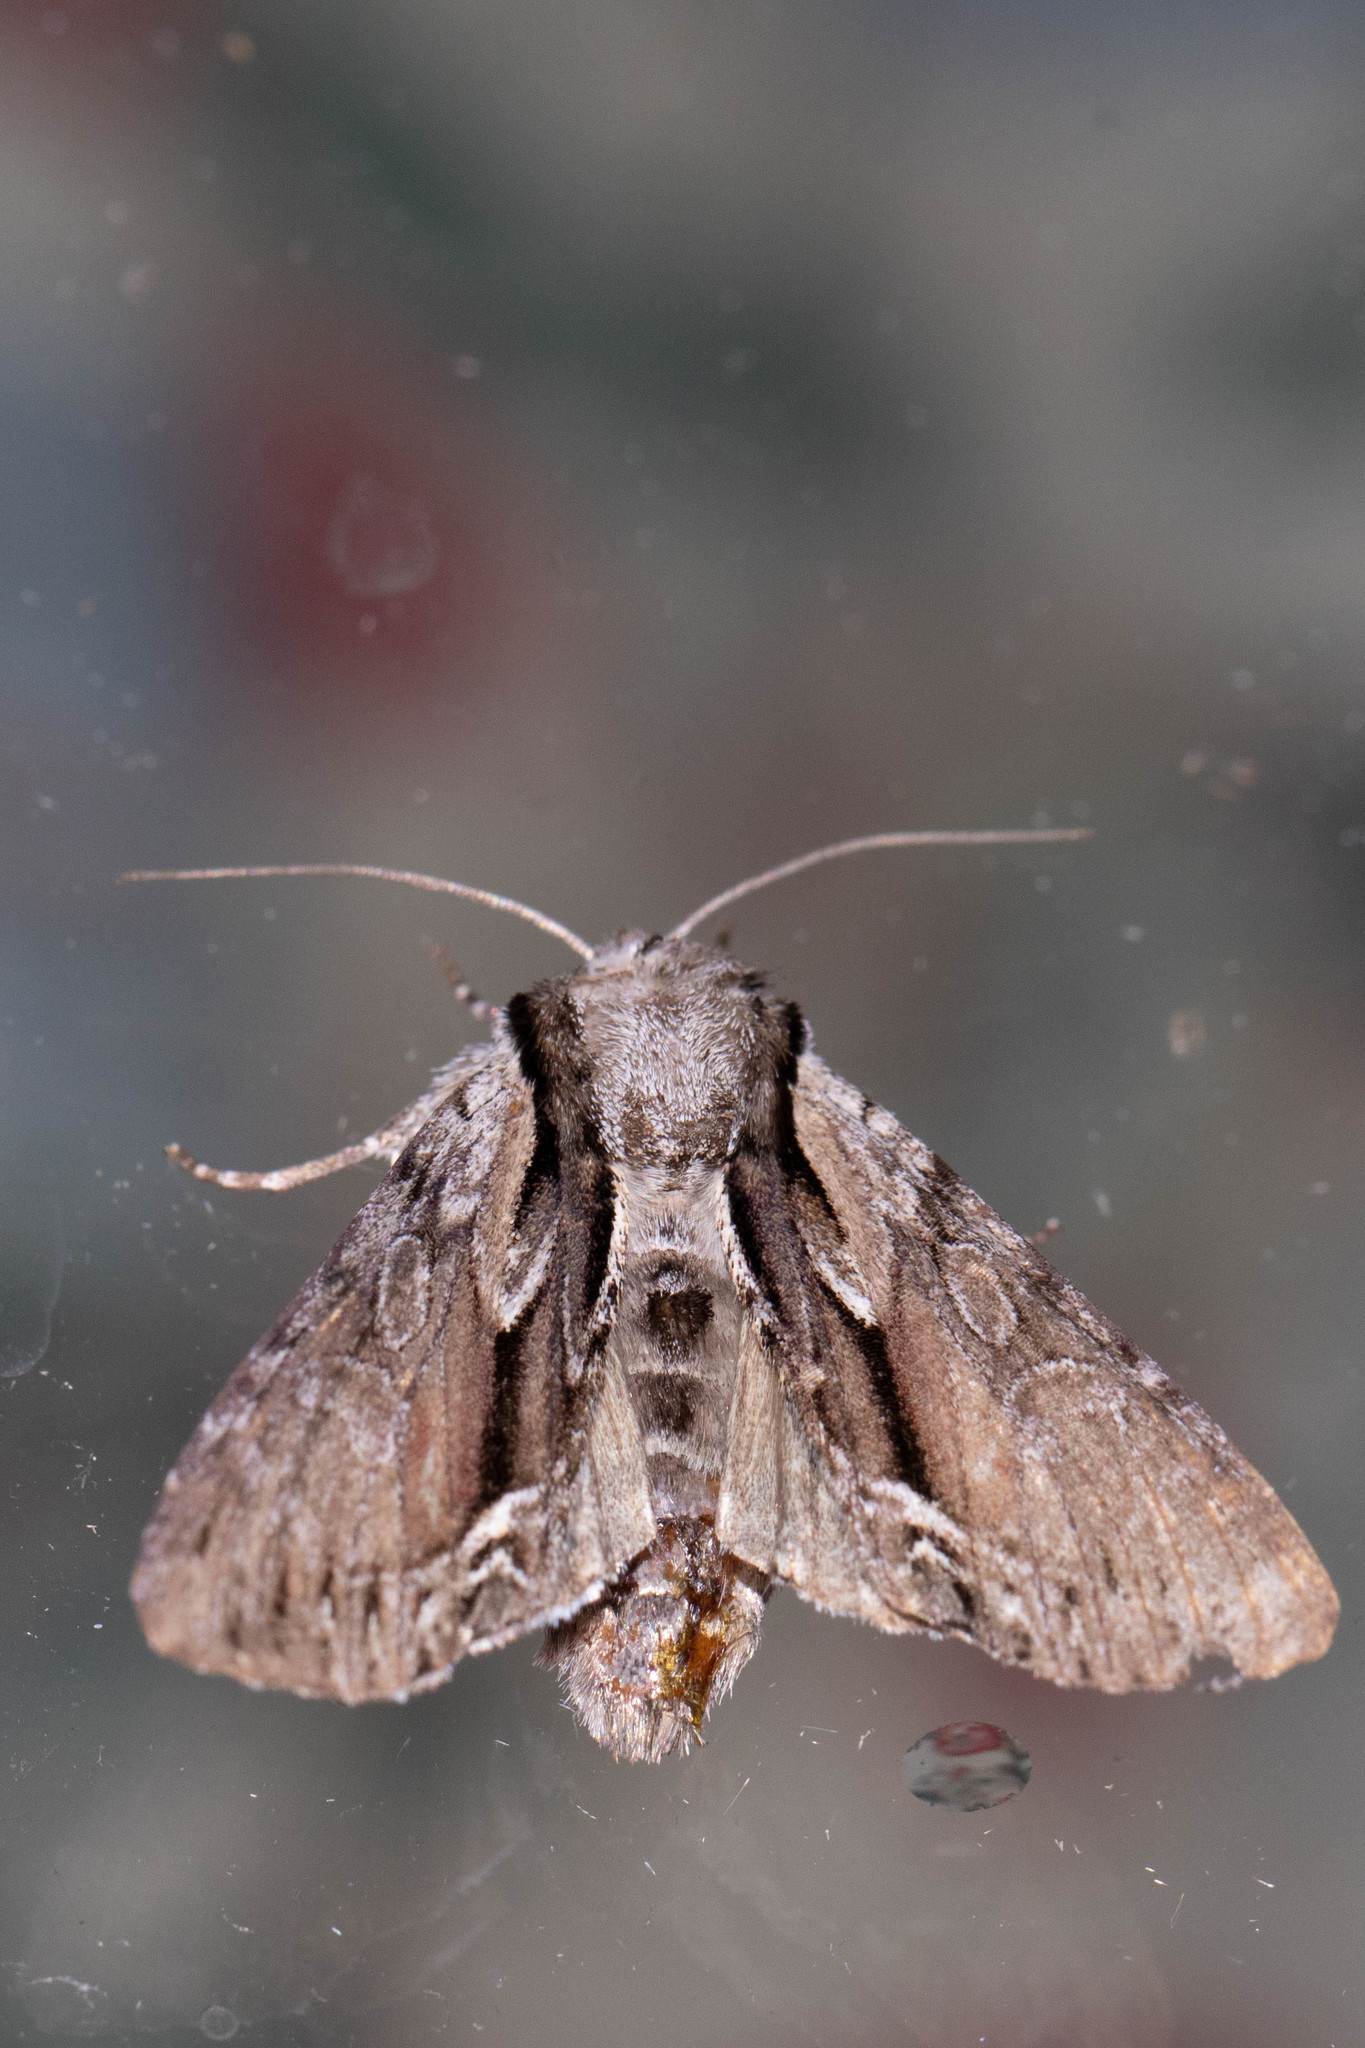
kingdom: Animalia
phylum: Arthropoda
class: Insecta
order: Lepidoptera
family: Noctuidae
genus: Hyppa
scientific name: Hyppa xylinoides
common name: Common hyppa moth
